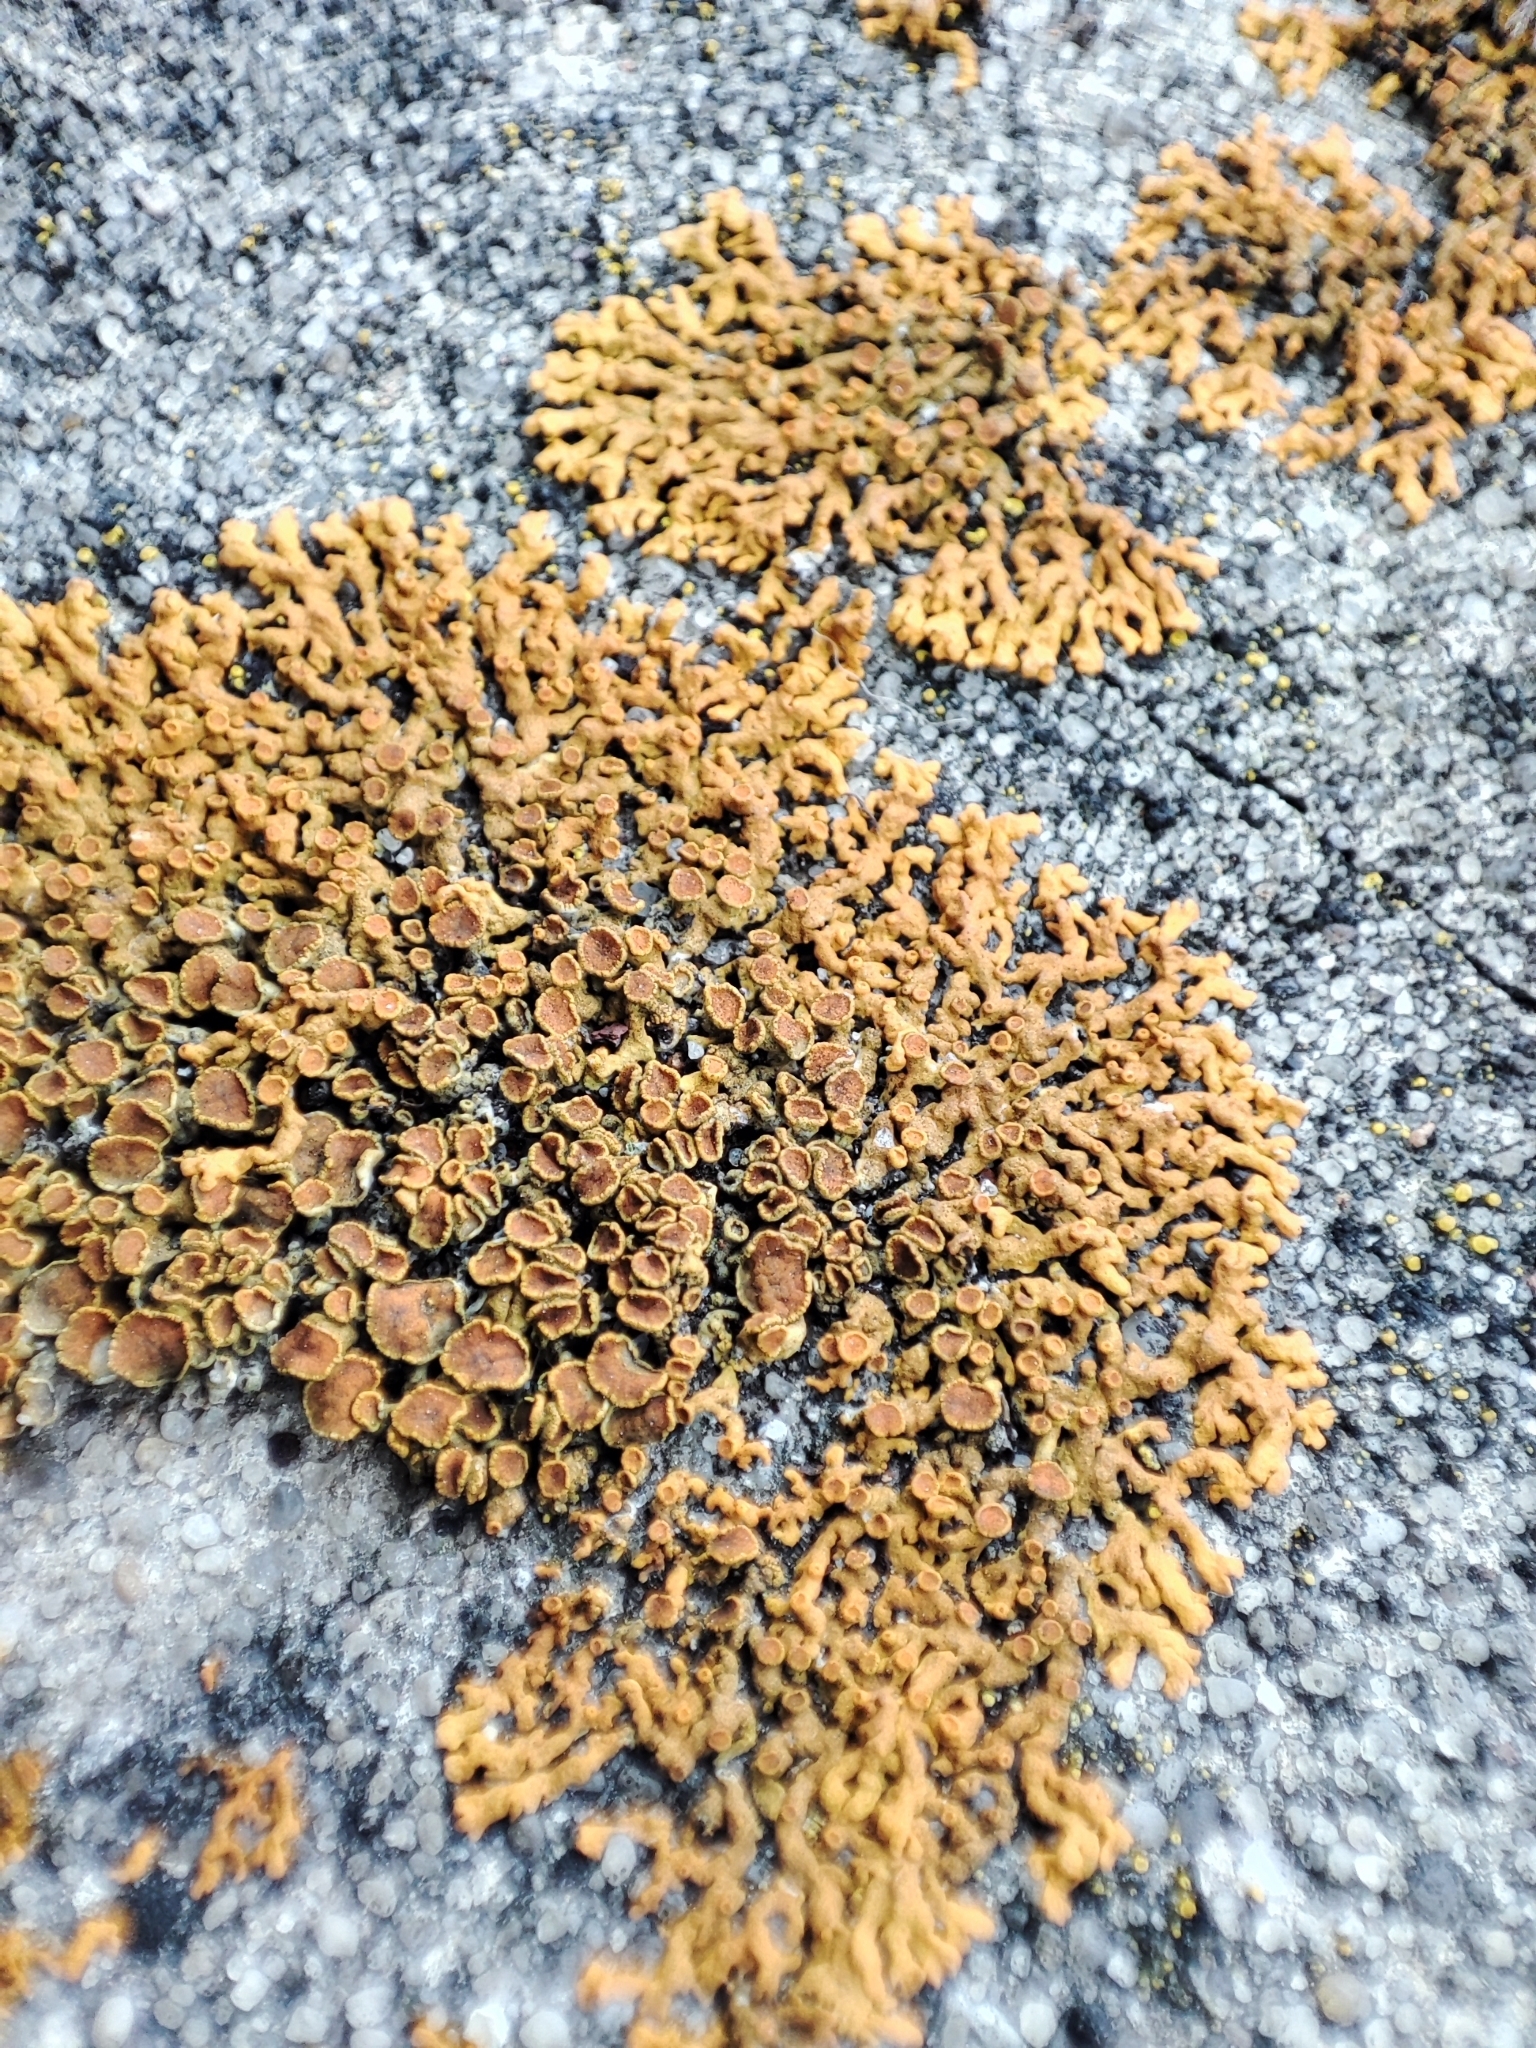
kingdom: Fungi
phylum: Ascomycota
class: Lecanoromycetes
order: Teloschistales
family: Teloschistaceae
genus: Xanthoria
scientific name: Xanthoria elegans
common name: Elegant sunburst lichen
